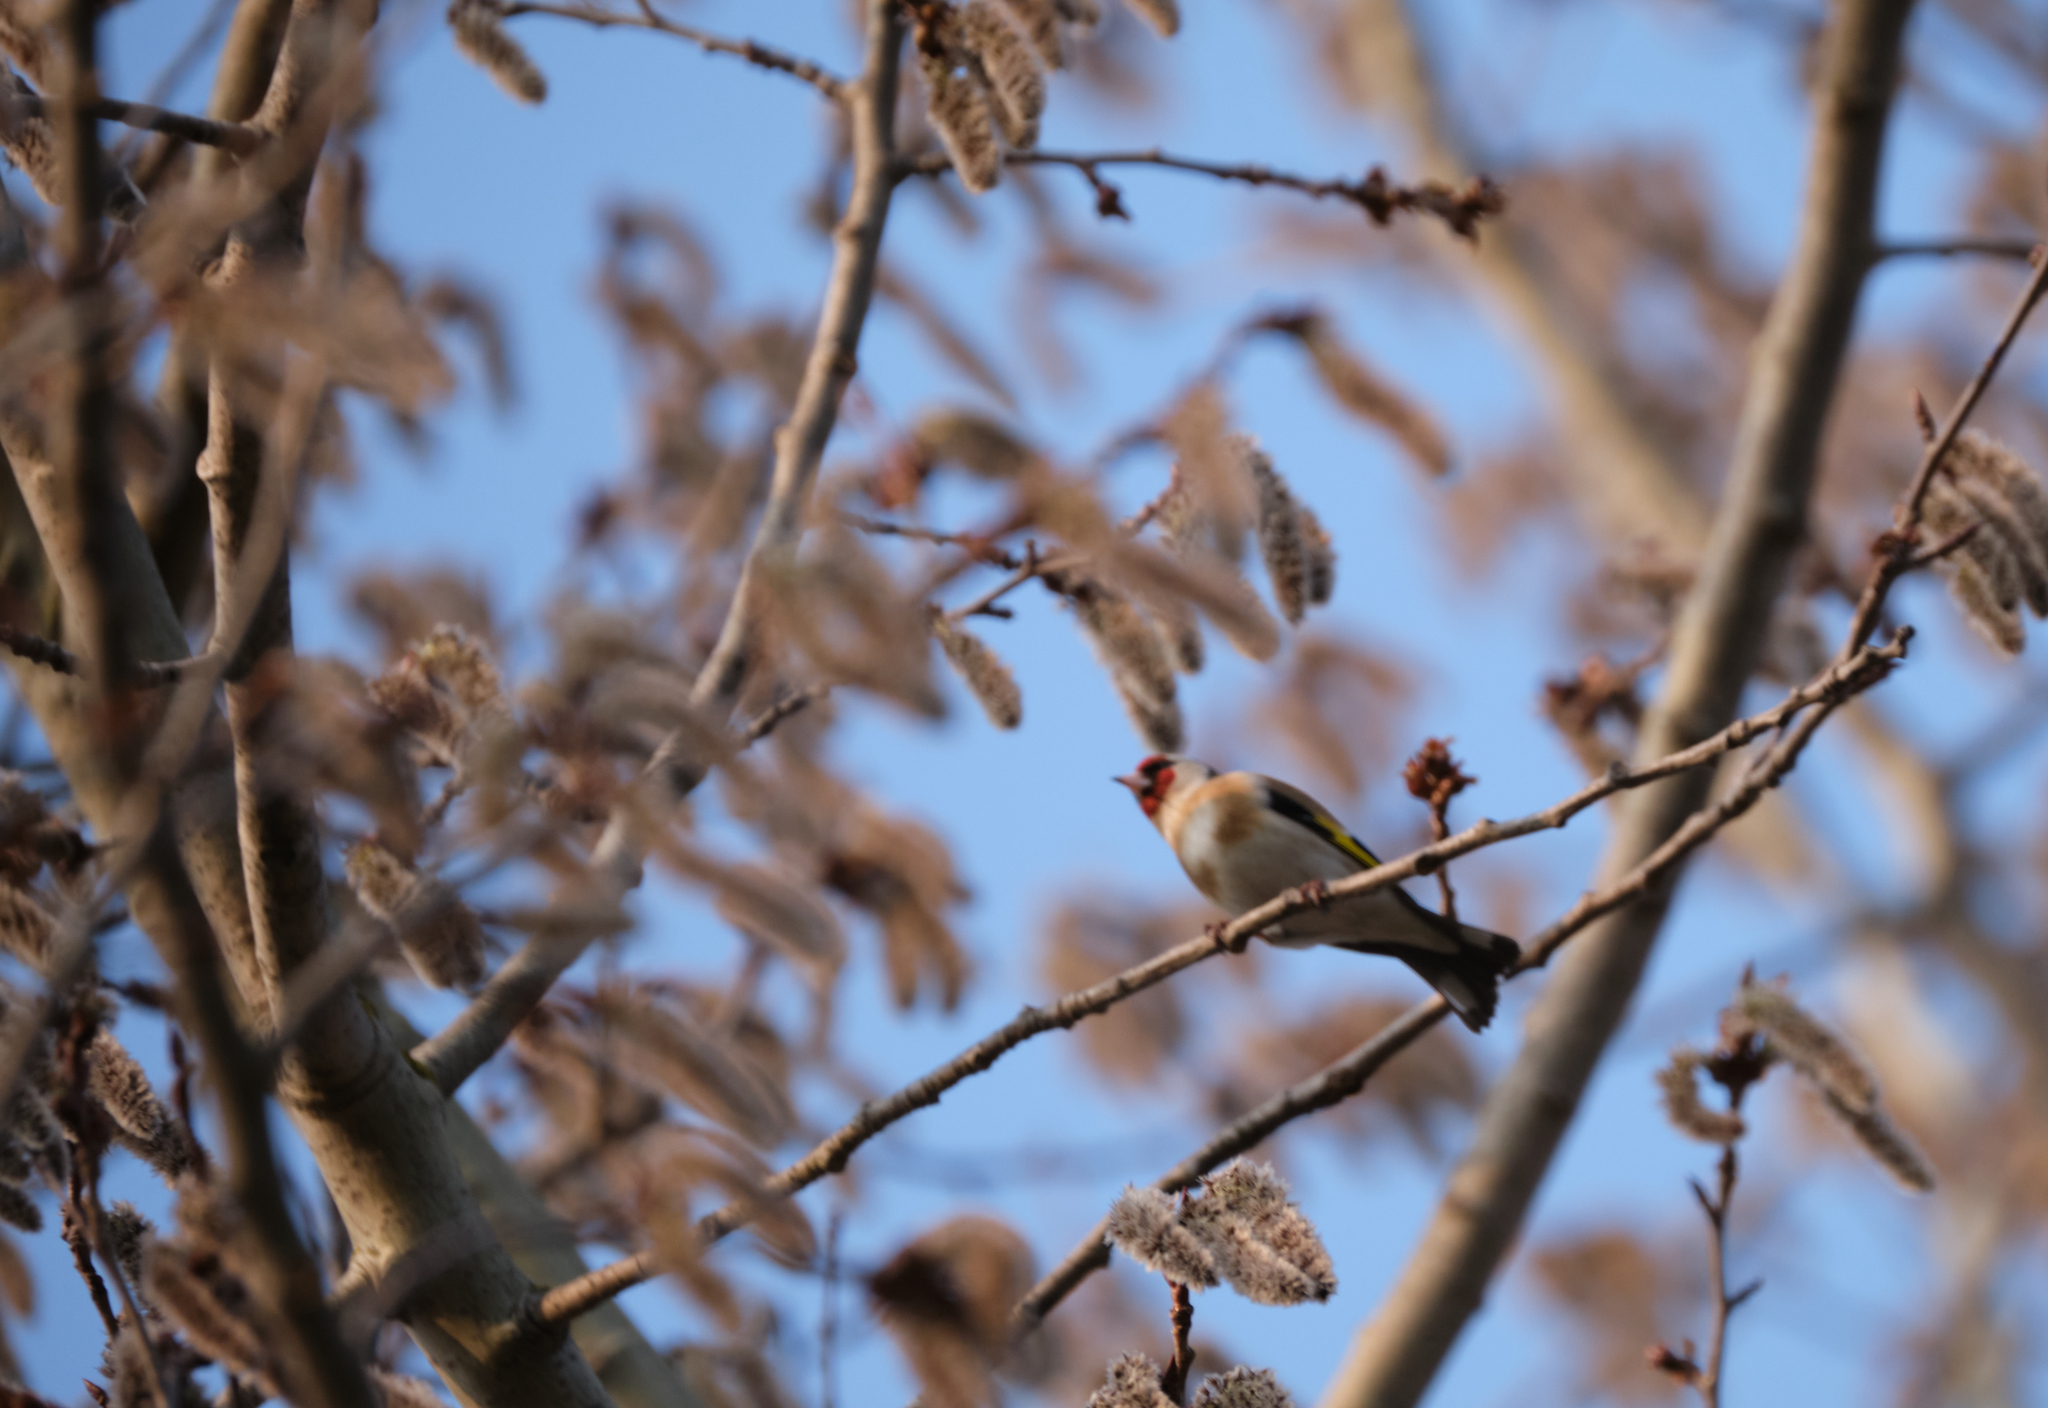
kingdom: Animalia
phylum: Chordata
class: Aves
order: Passeriformes
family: Fringillidae
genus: Carduelis
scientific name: Carduelis carduelis
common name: European goldfinch
